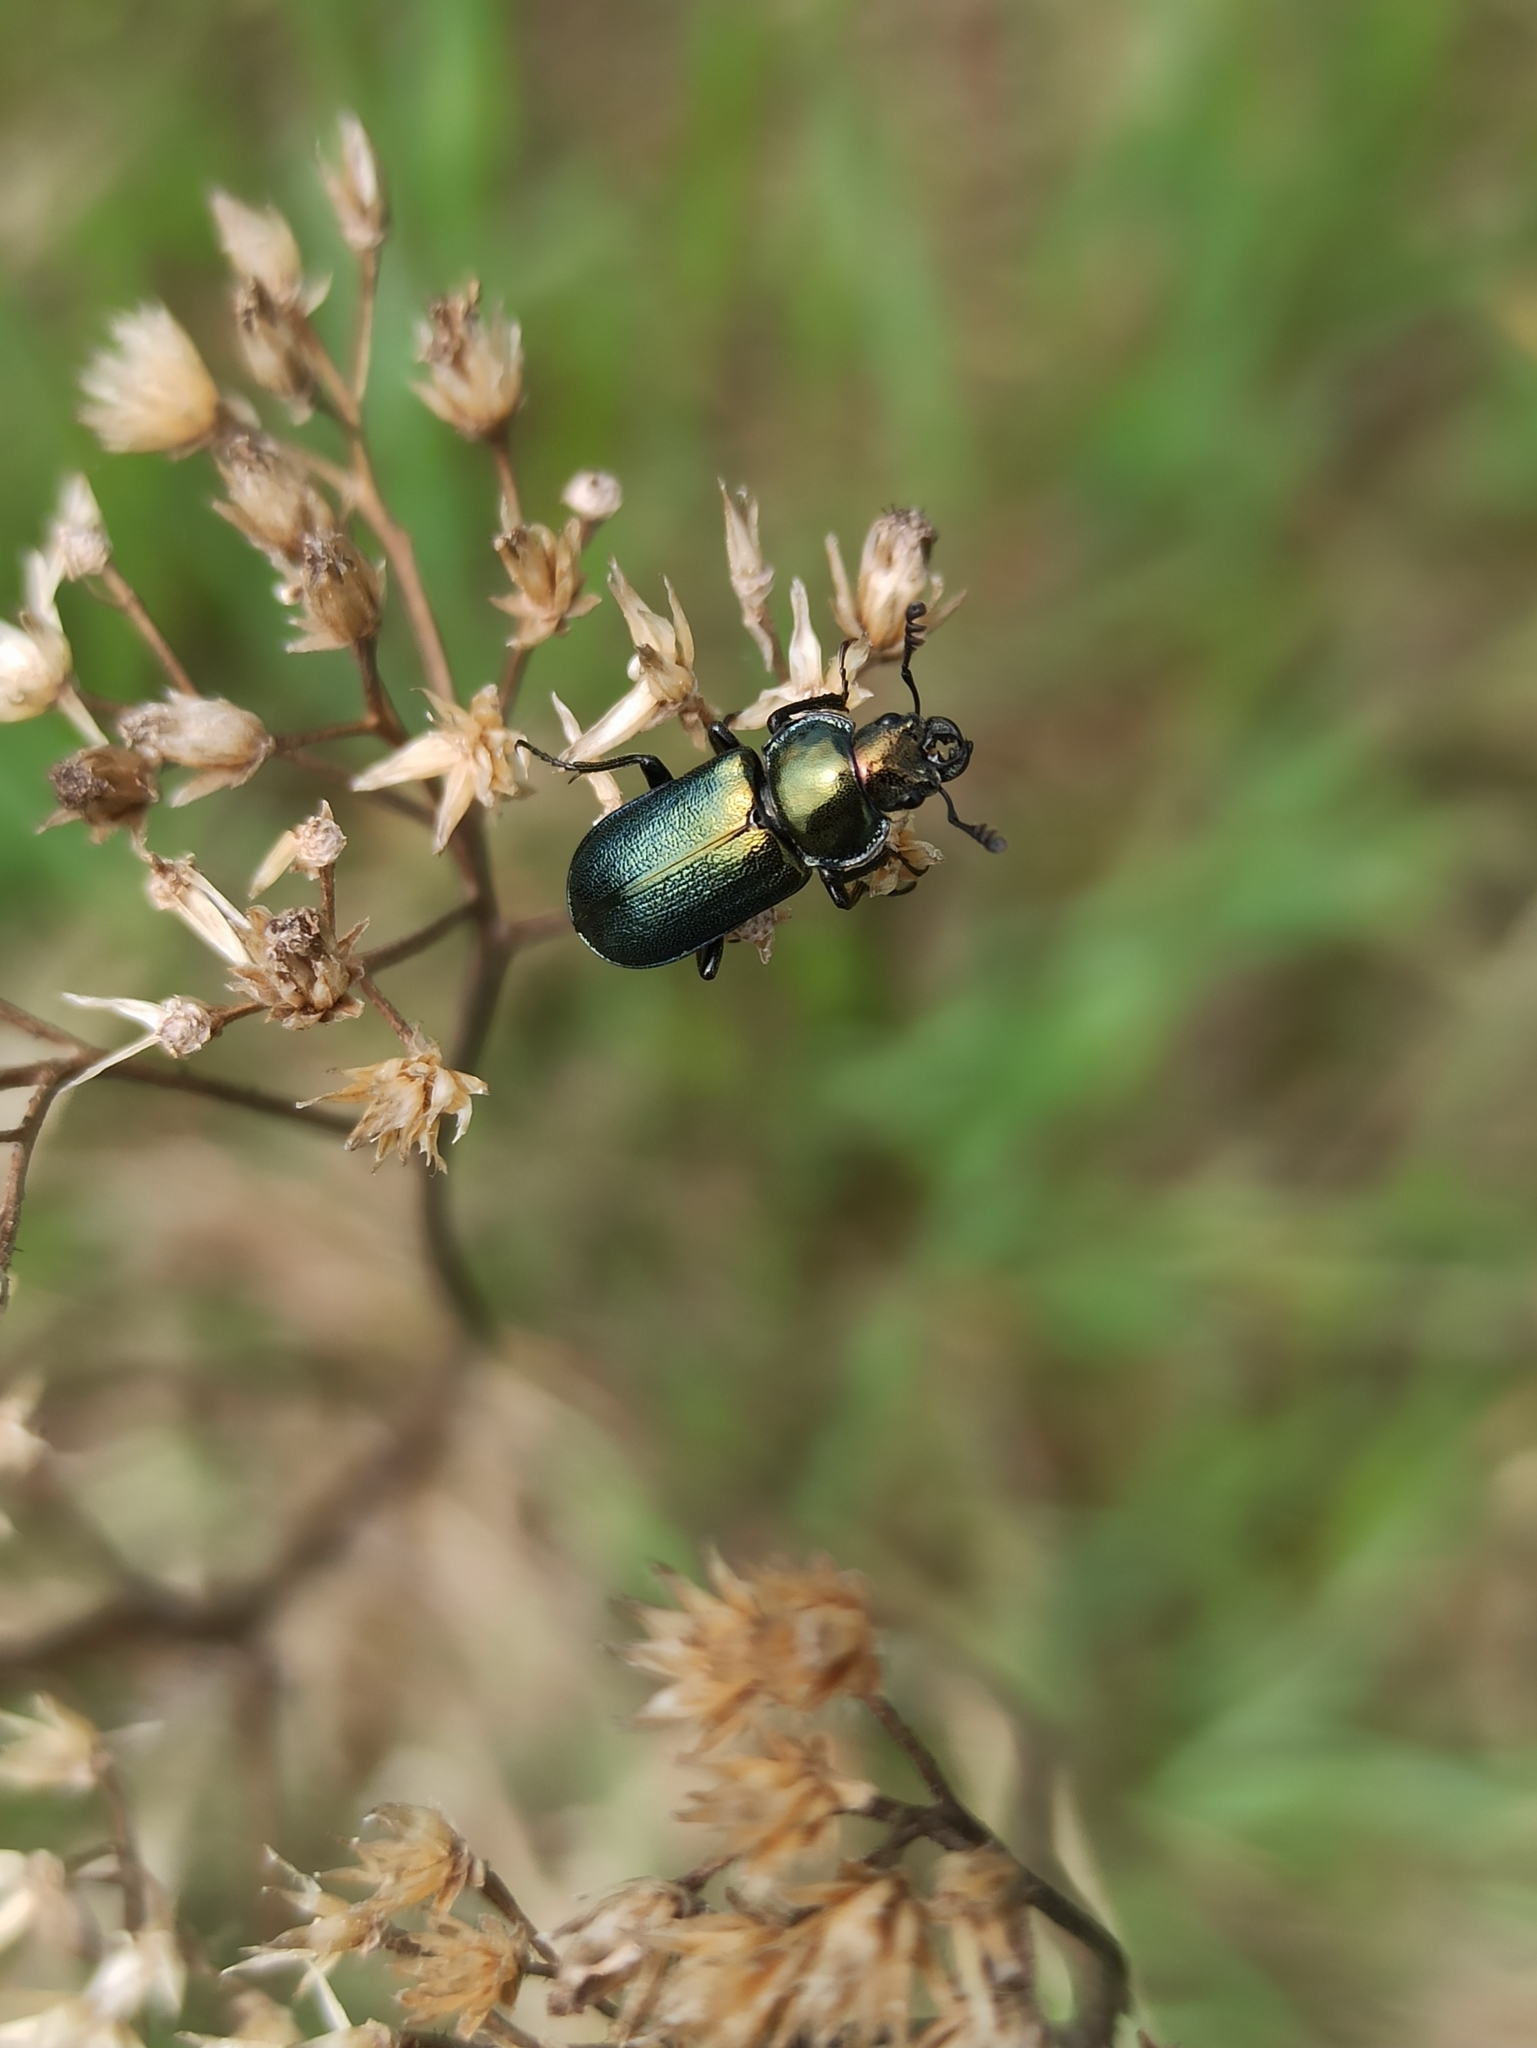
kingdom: Animalia
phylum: Arthropoda
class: Insecta
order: Coleoptera
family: Lucanidae
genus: Platycerus
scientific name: Platycerus caprea
